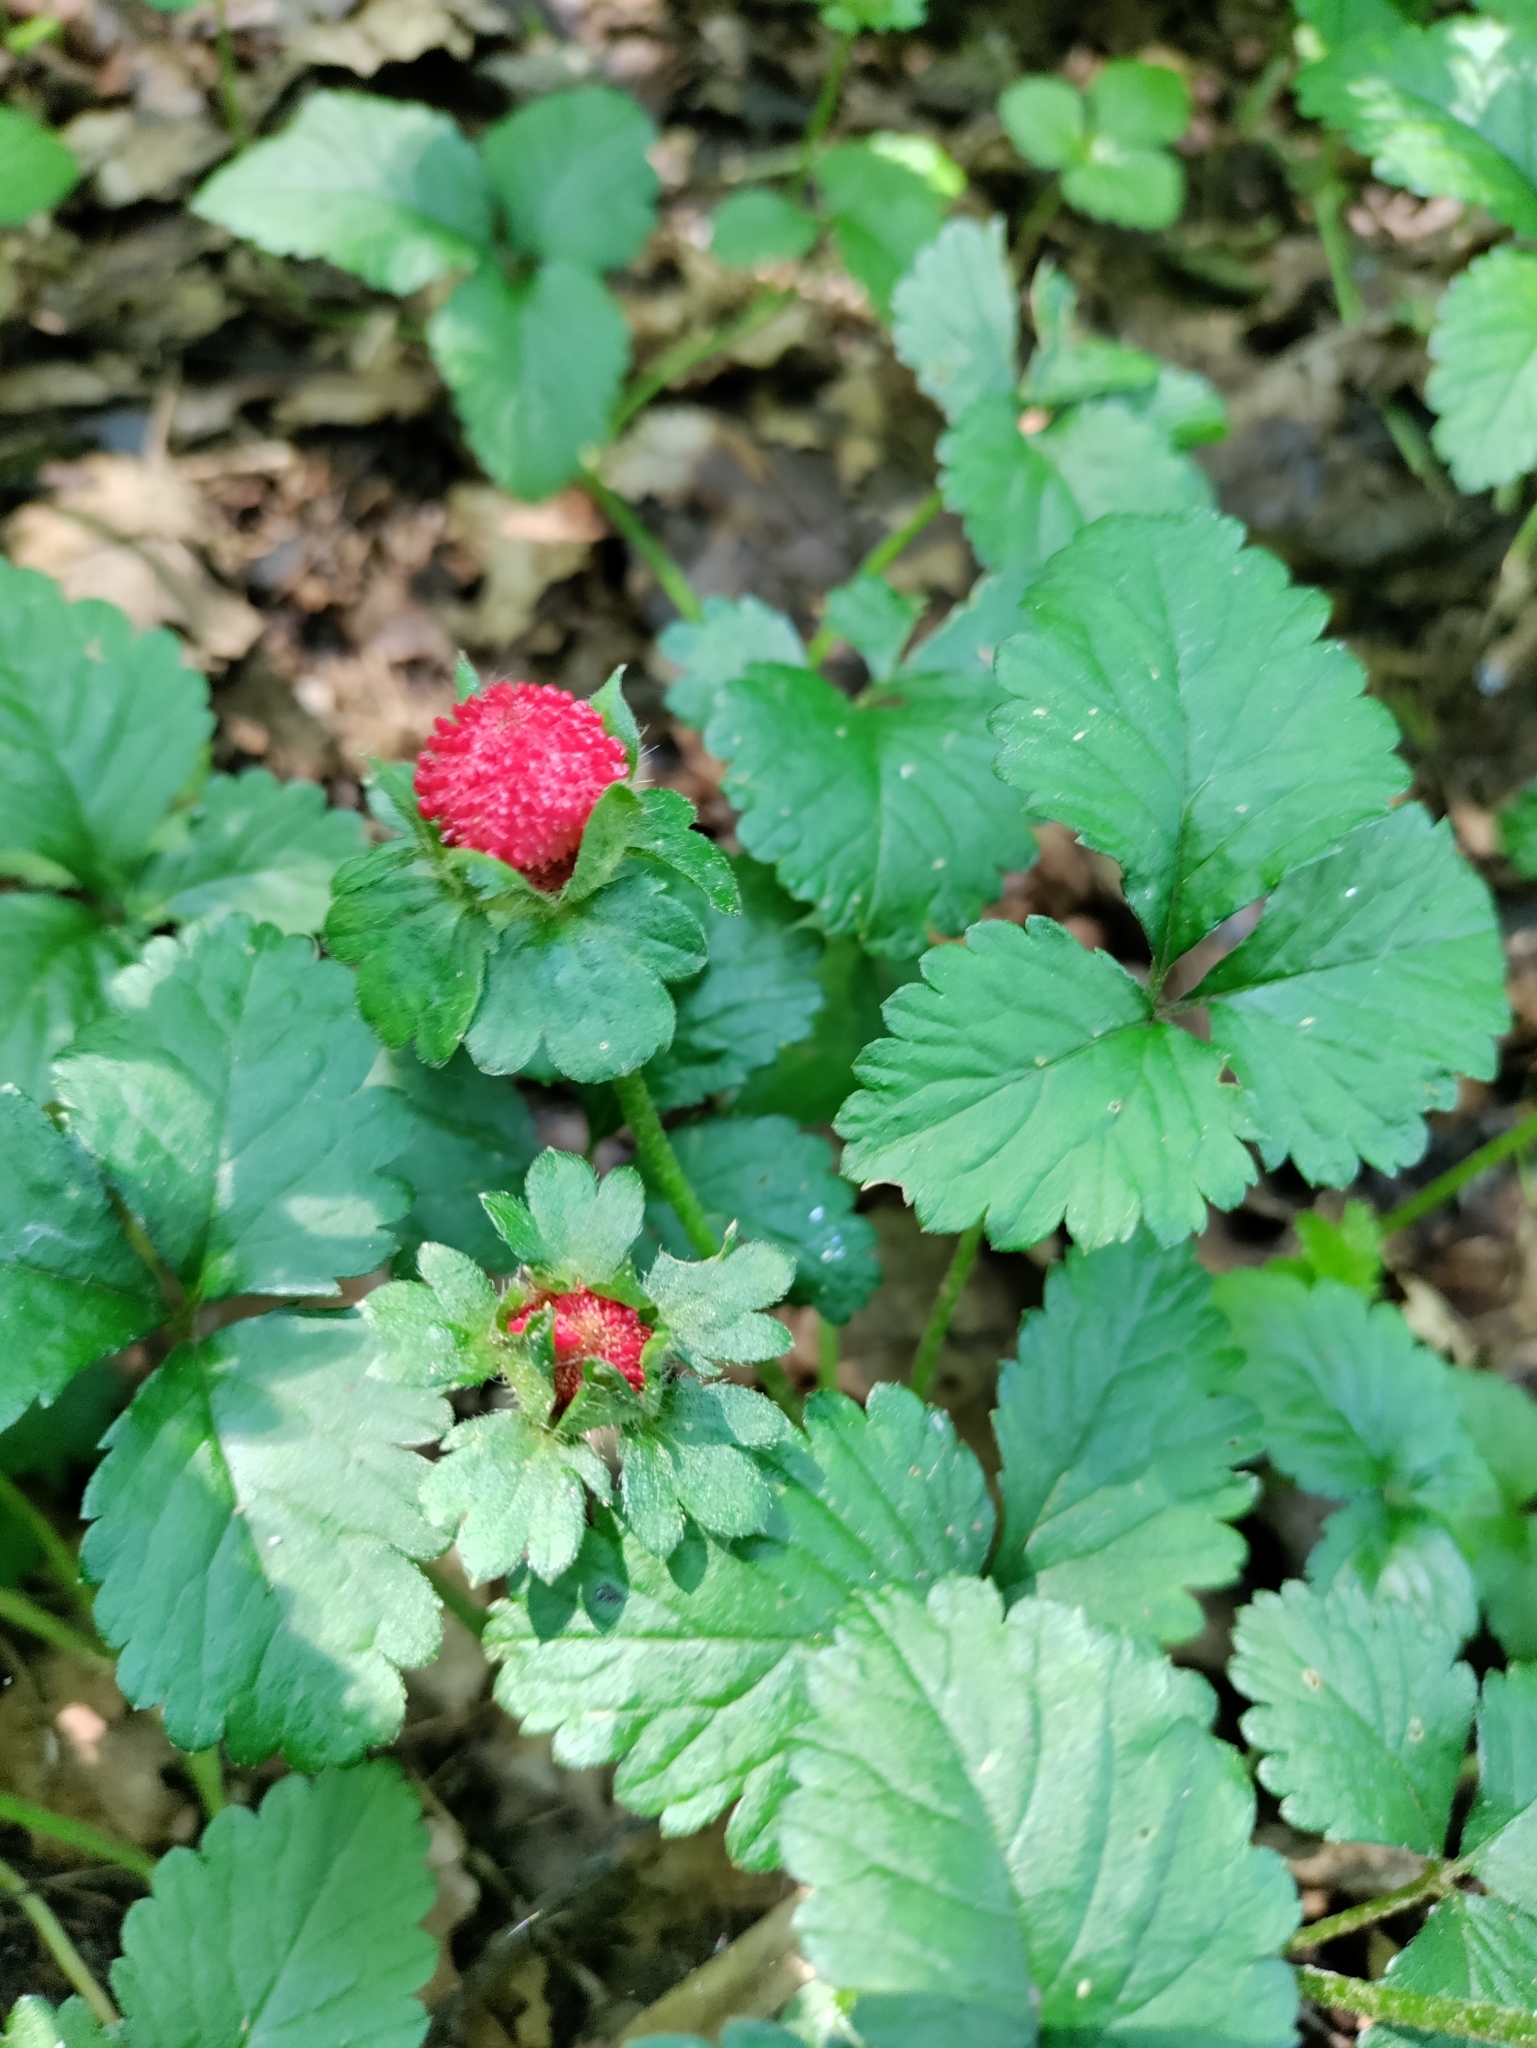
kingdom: Plantae
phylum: Tracheophyta
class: Magnoliopsida
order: Rosales
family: Rosaceae
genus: Potentilla
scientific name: Potentilla indica
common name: Yellow-flowered strawberry
